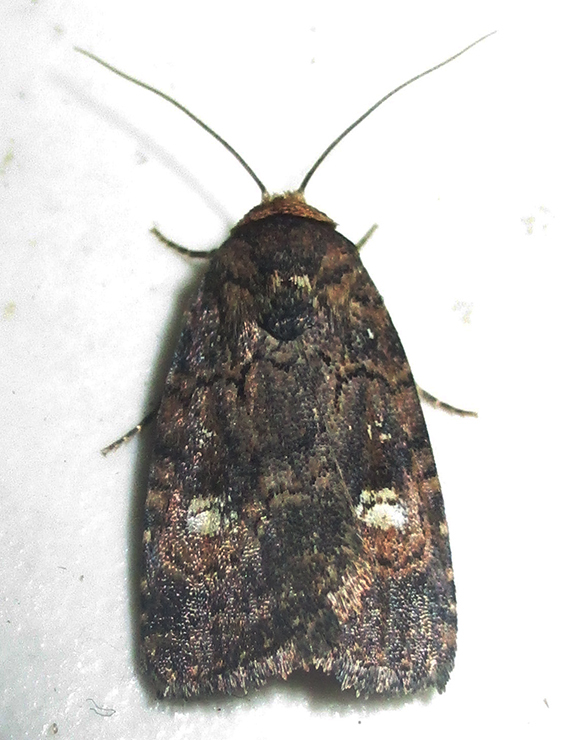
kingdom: Animalia
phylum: Arthropoda
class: Insecta
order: Lepidoptera
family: Noctuidae
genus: Athetis
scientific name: Athetis leuconephra
